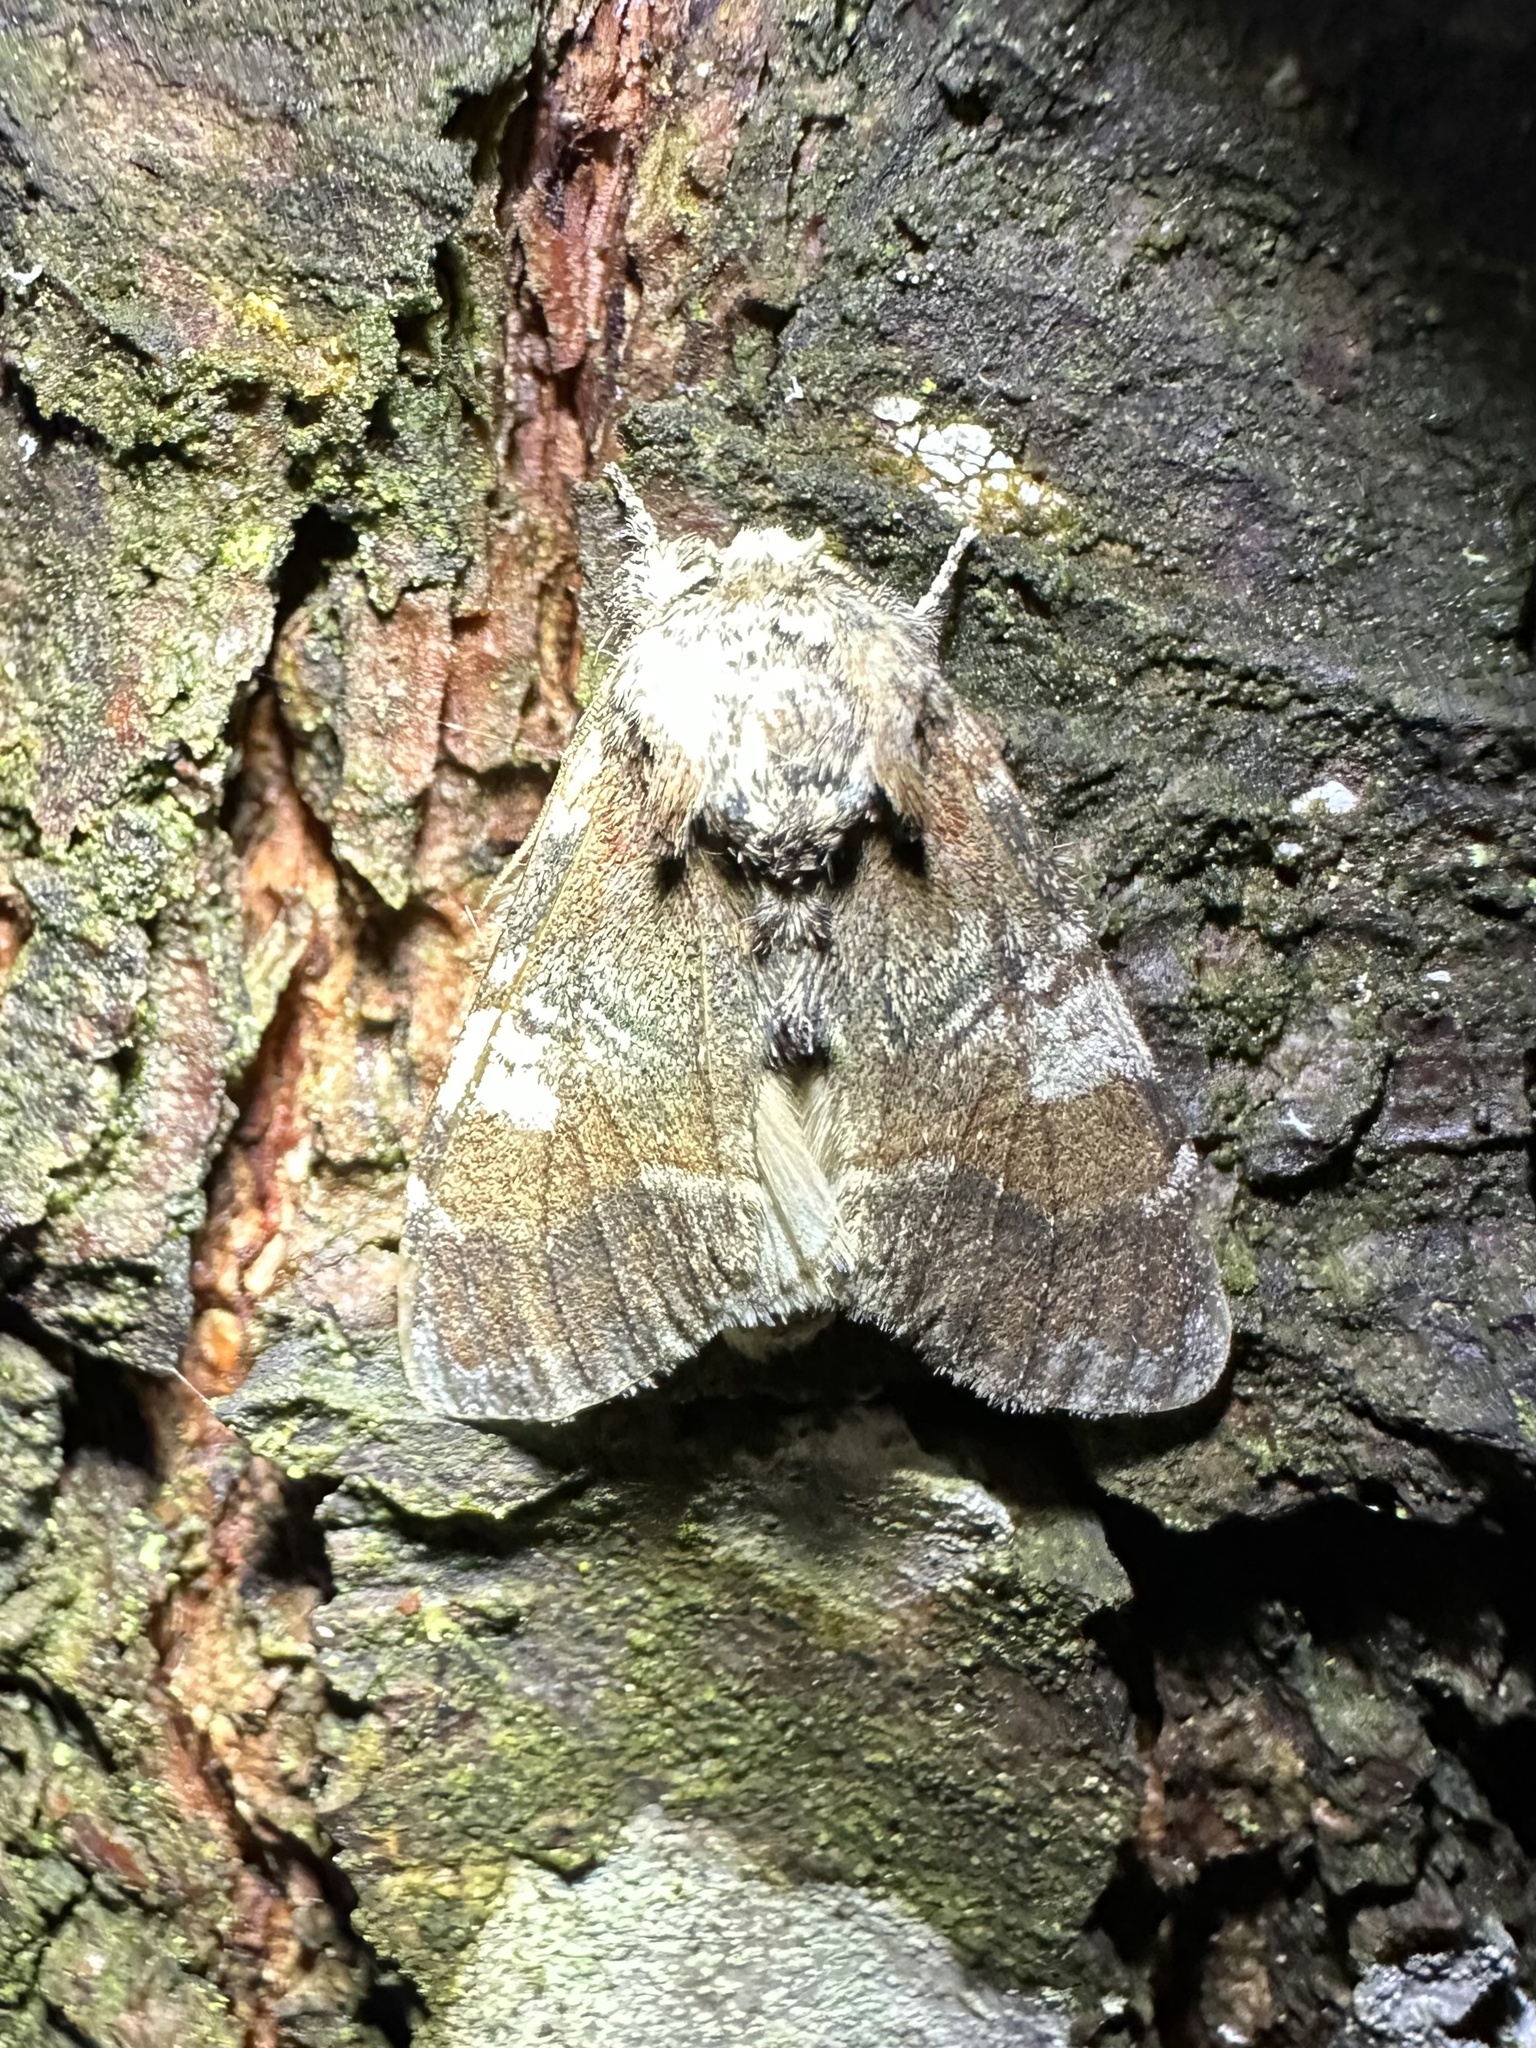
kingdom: Animalia
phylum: Arthropoda
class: Insecta
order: Lepidoptera
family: Notodontidae
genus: Peridea
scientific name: Peridea ferruginea
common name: Chocolate prominent
